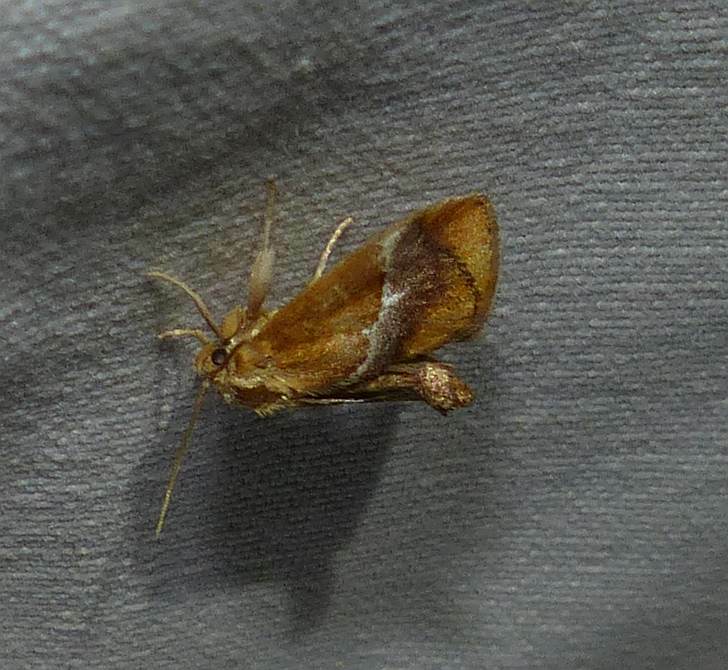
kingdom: Animalia
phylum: Arthropoda
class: Insecta
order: Lepidoptera
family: Limacodidae
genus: Lithacodes
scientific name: Lithacodes fasciola
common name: Yellow-shouldered slug moth
